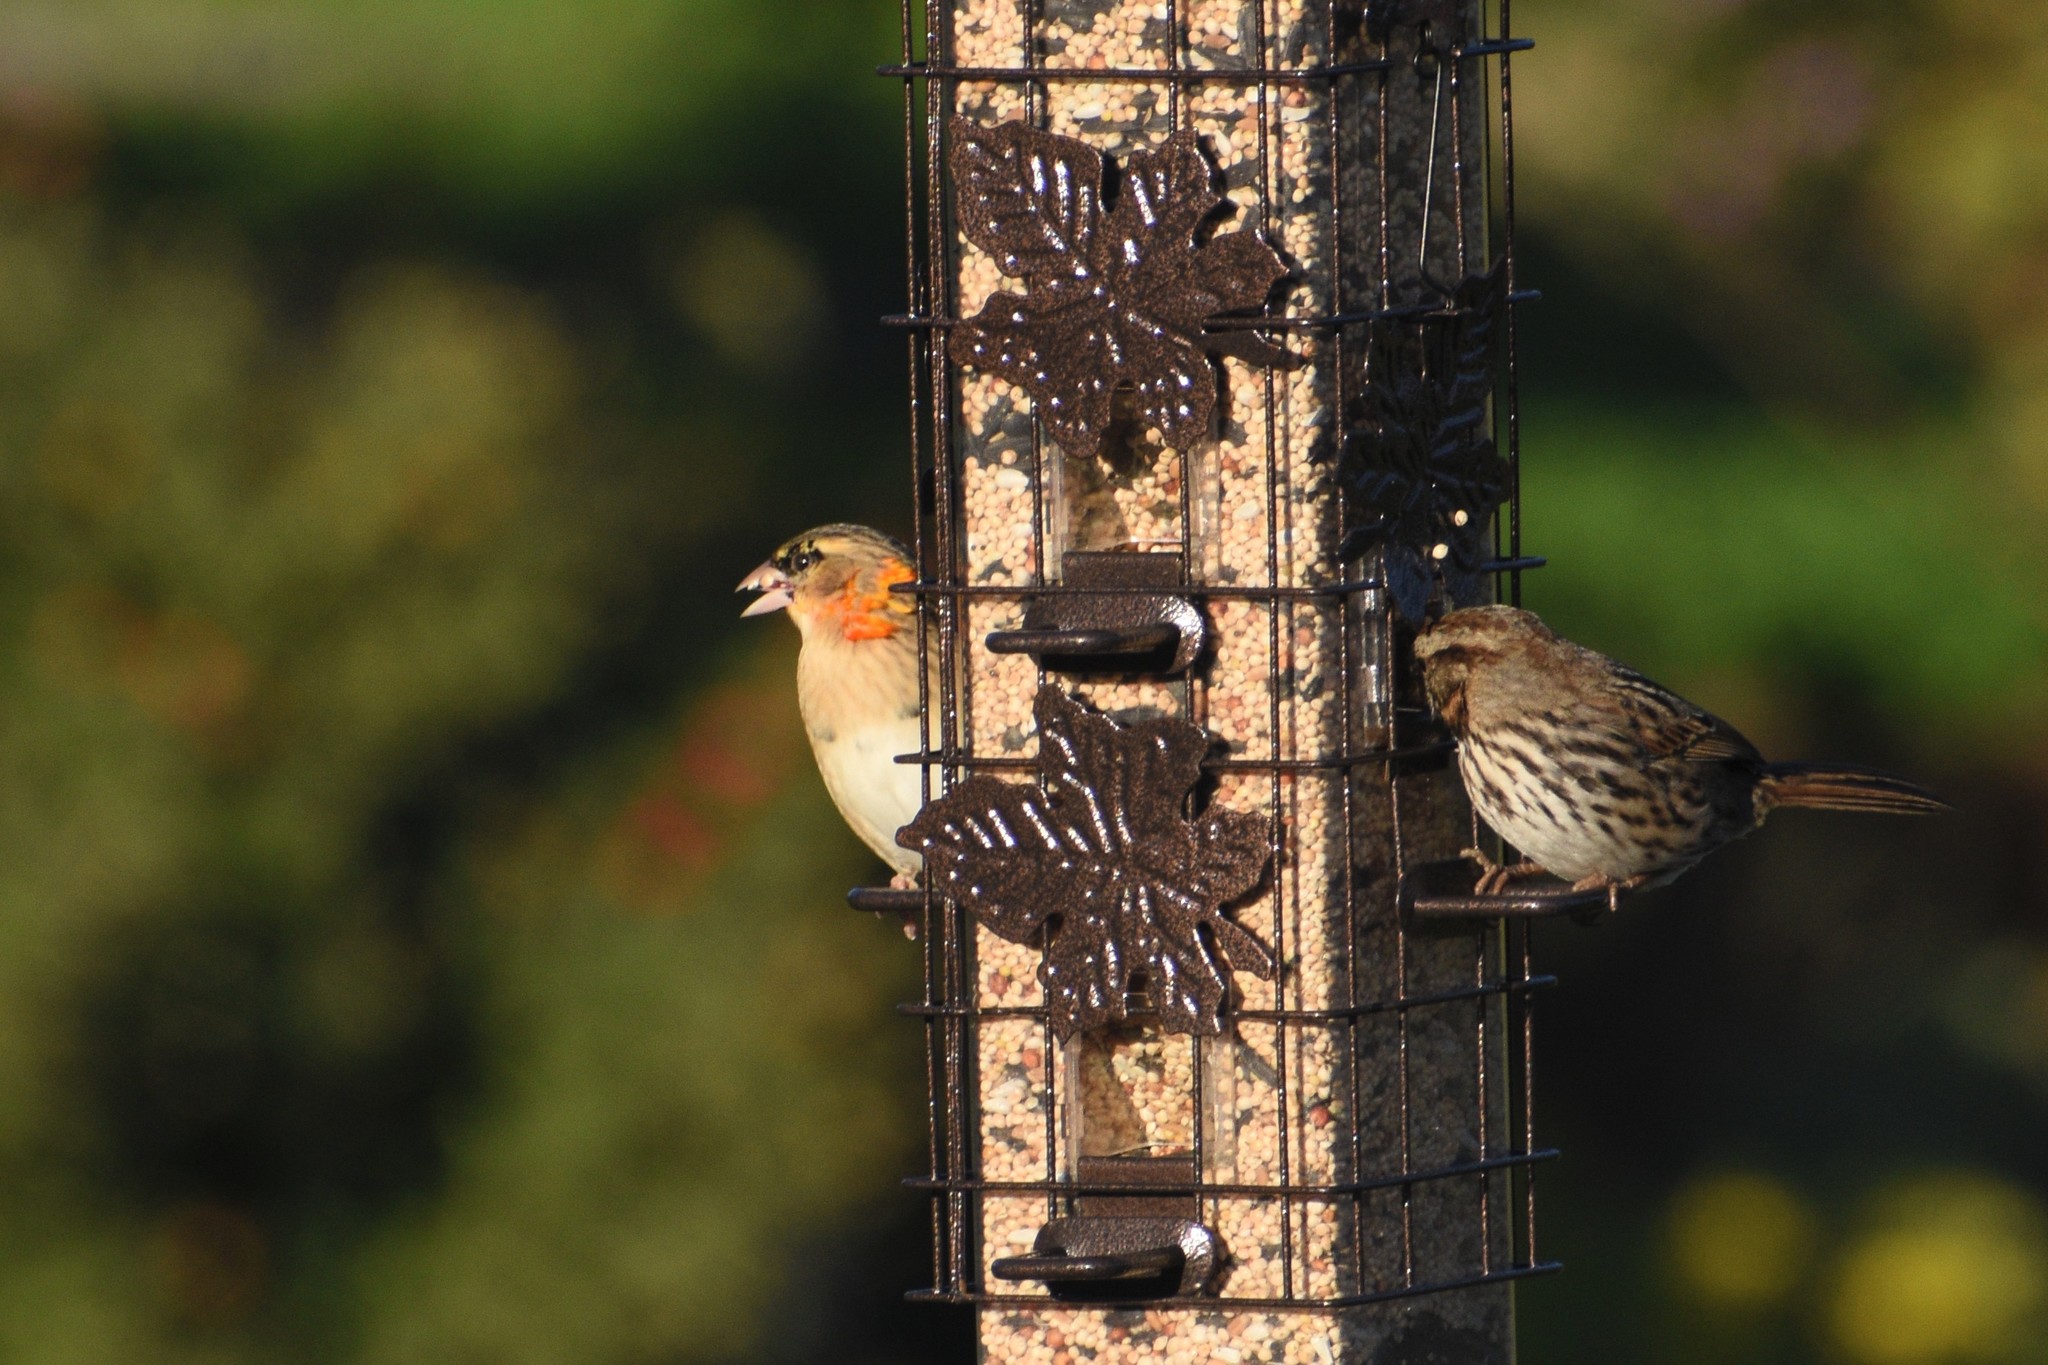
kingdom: Animalia
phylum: Chordata
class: Aves
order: Passeriformes
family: Ploceidae
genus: Euplectes
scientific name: Euplectes franciscanus
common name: Northern red bishop
